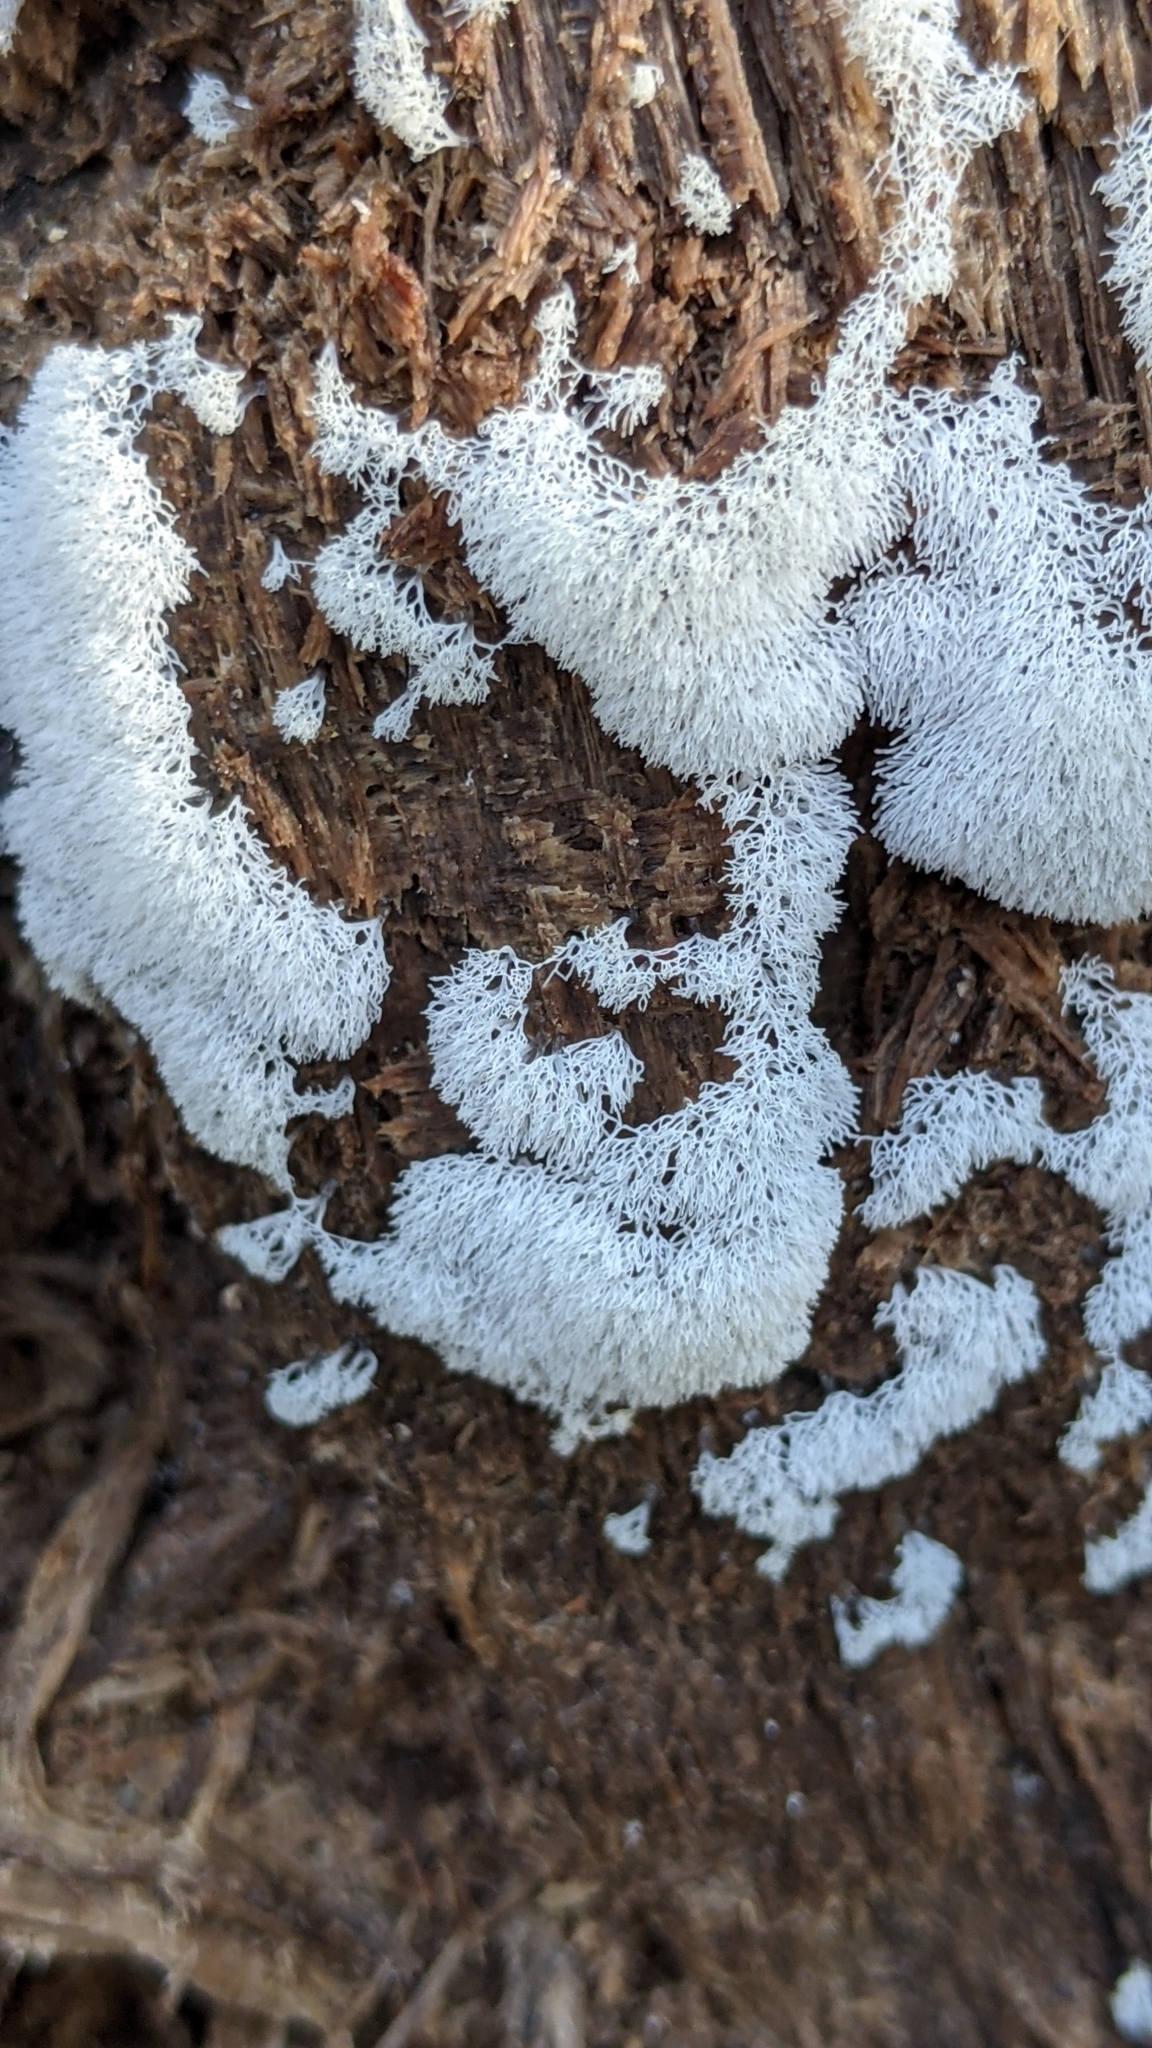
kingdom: Protozoa
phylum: Mycetozoa
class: Protosteliomycetes
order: Ceratiomyxales
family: Ceratiomyxaceae
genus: Ceratiomyxa
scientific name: Ceratiomyxa fruticulosa
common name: Honeycomb coral slime mold
